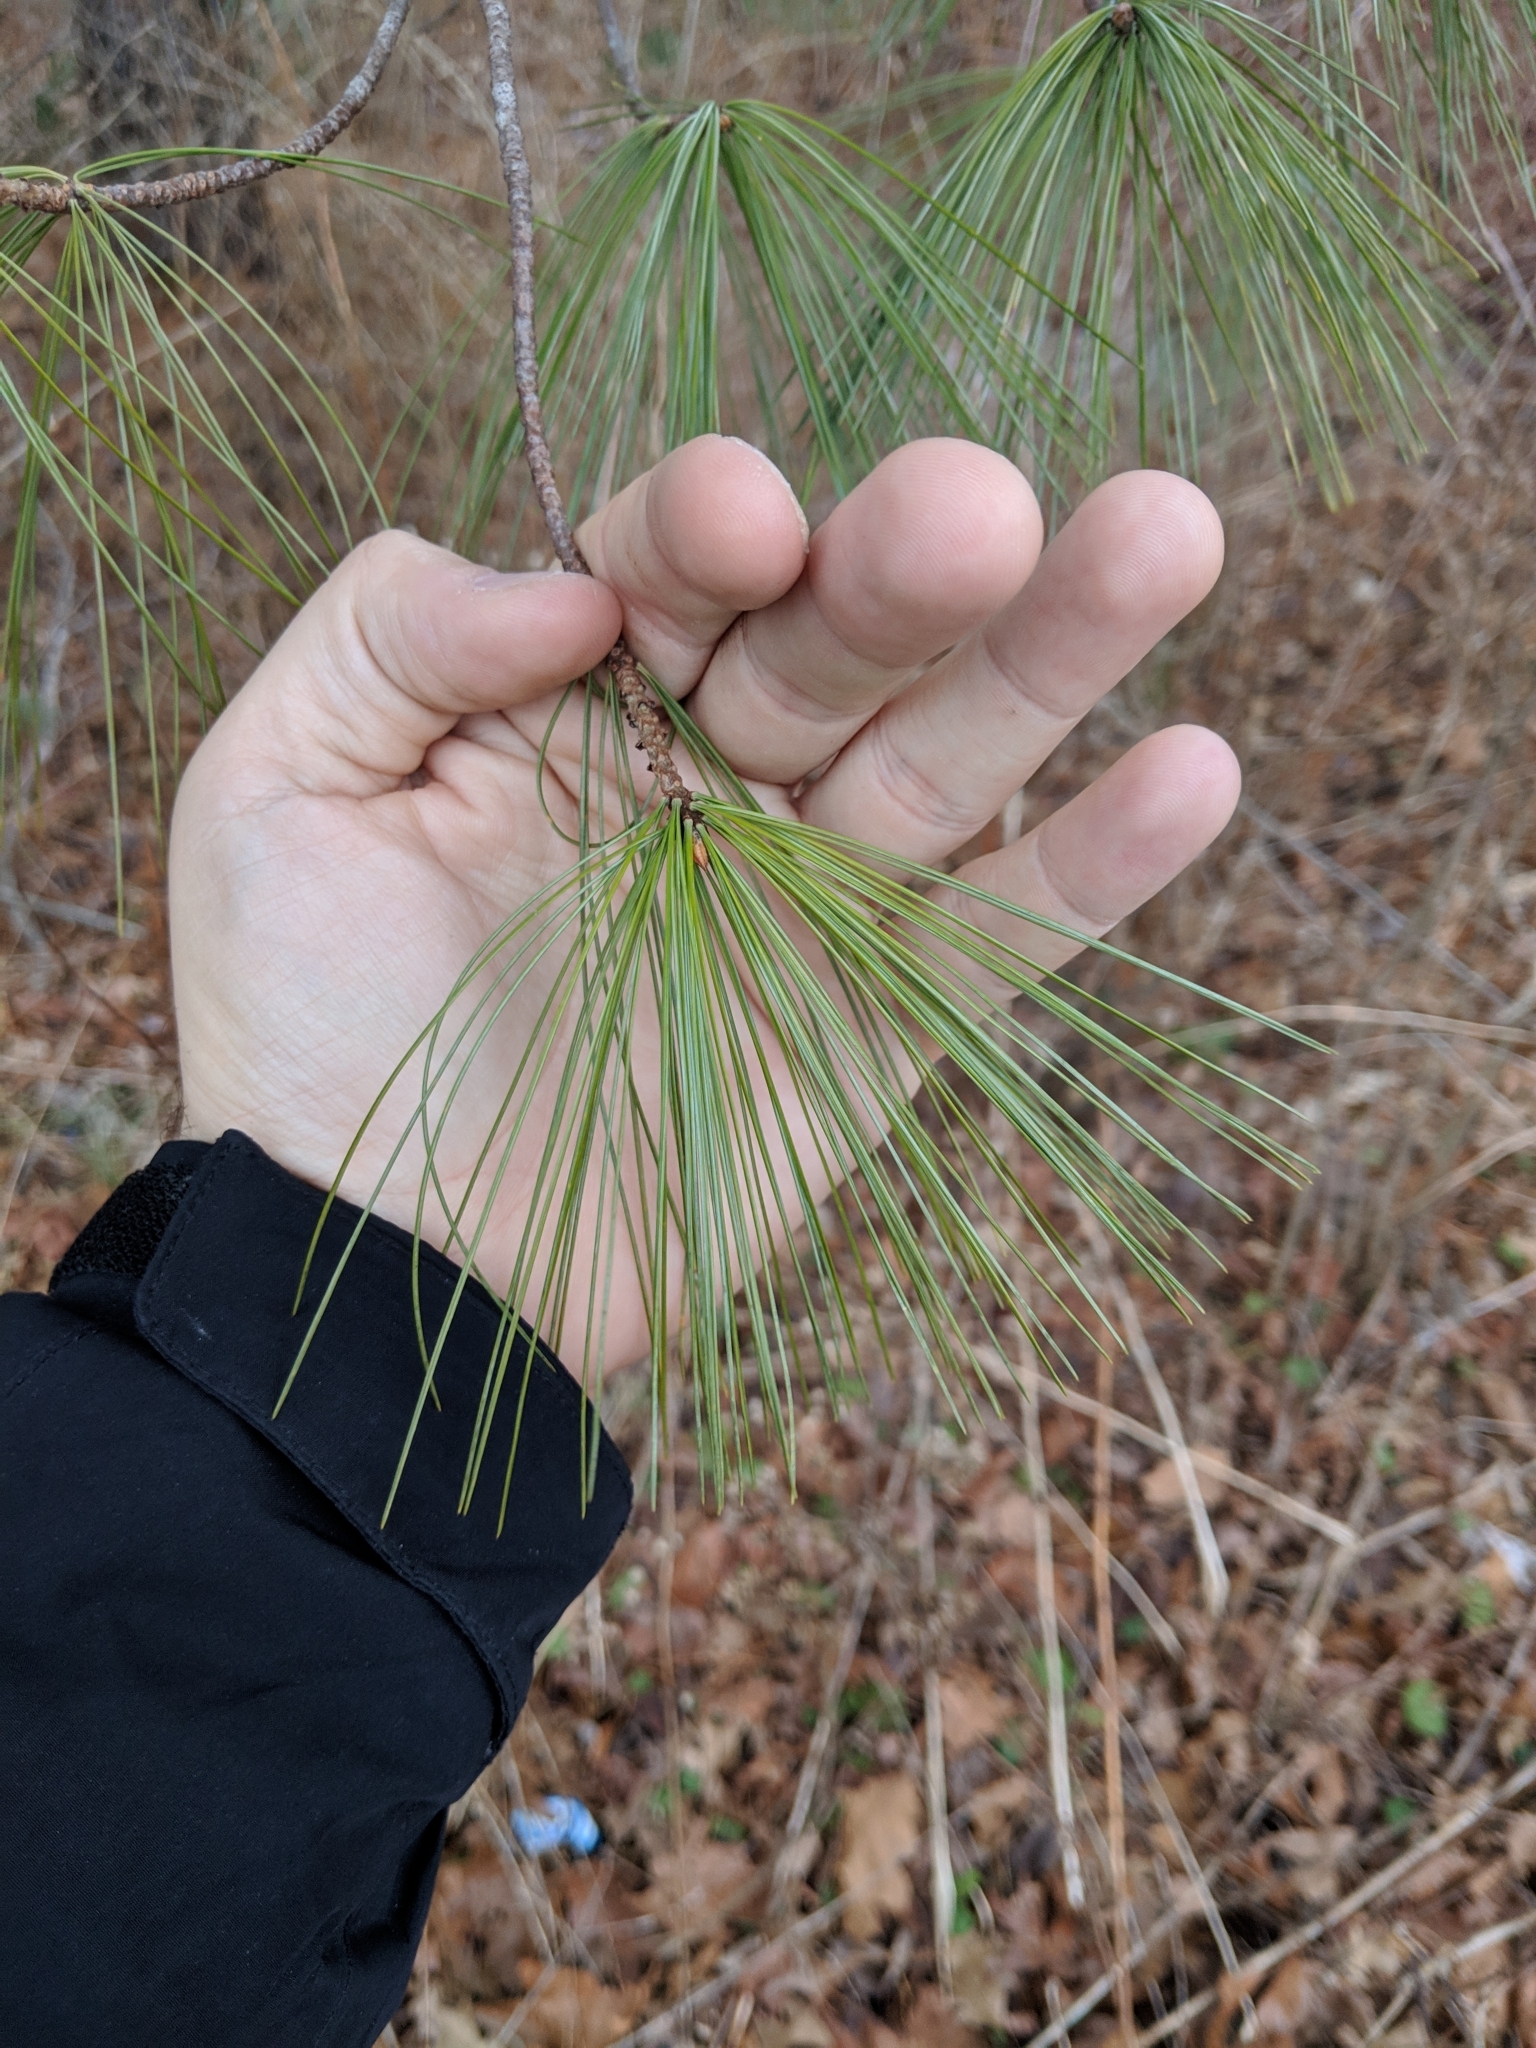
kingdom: Plantae
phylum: Tracheophyta
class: Pinopsida
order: Pinales
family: Pinaceae
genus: Pinus
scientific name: Pinus strobus
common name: Weymouth pine
